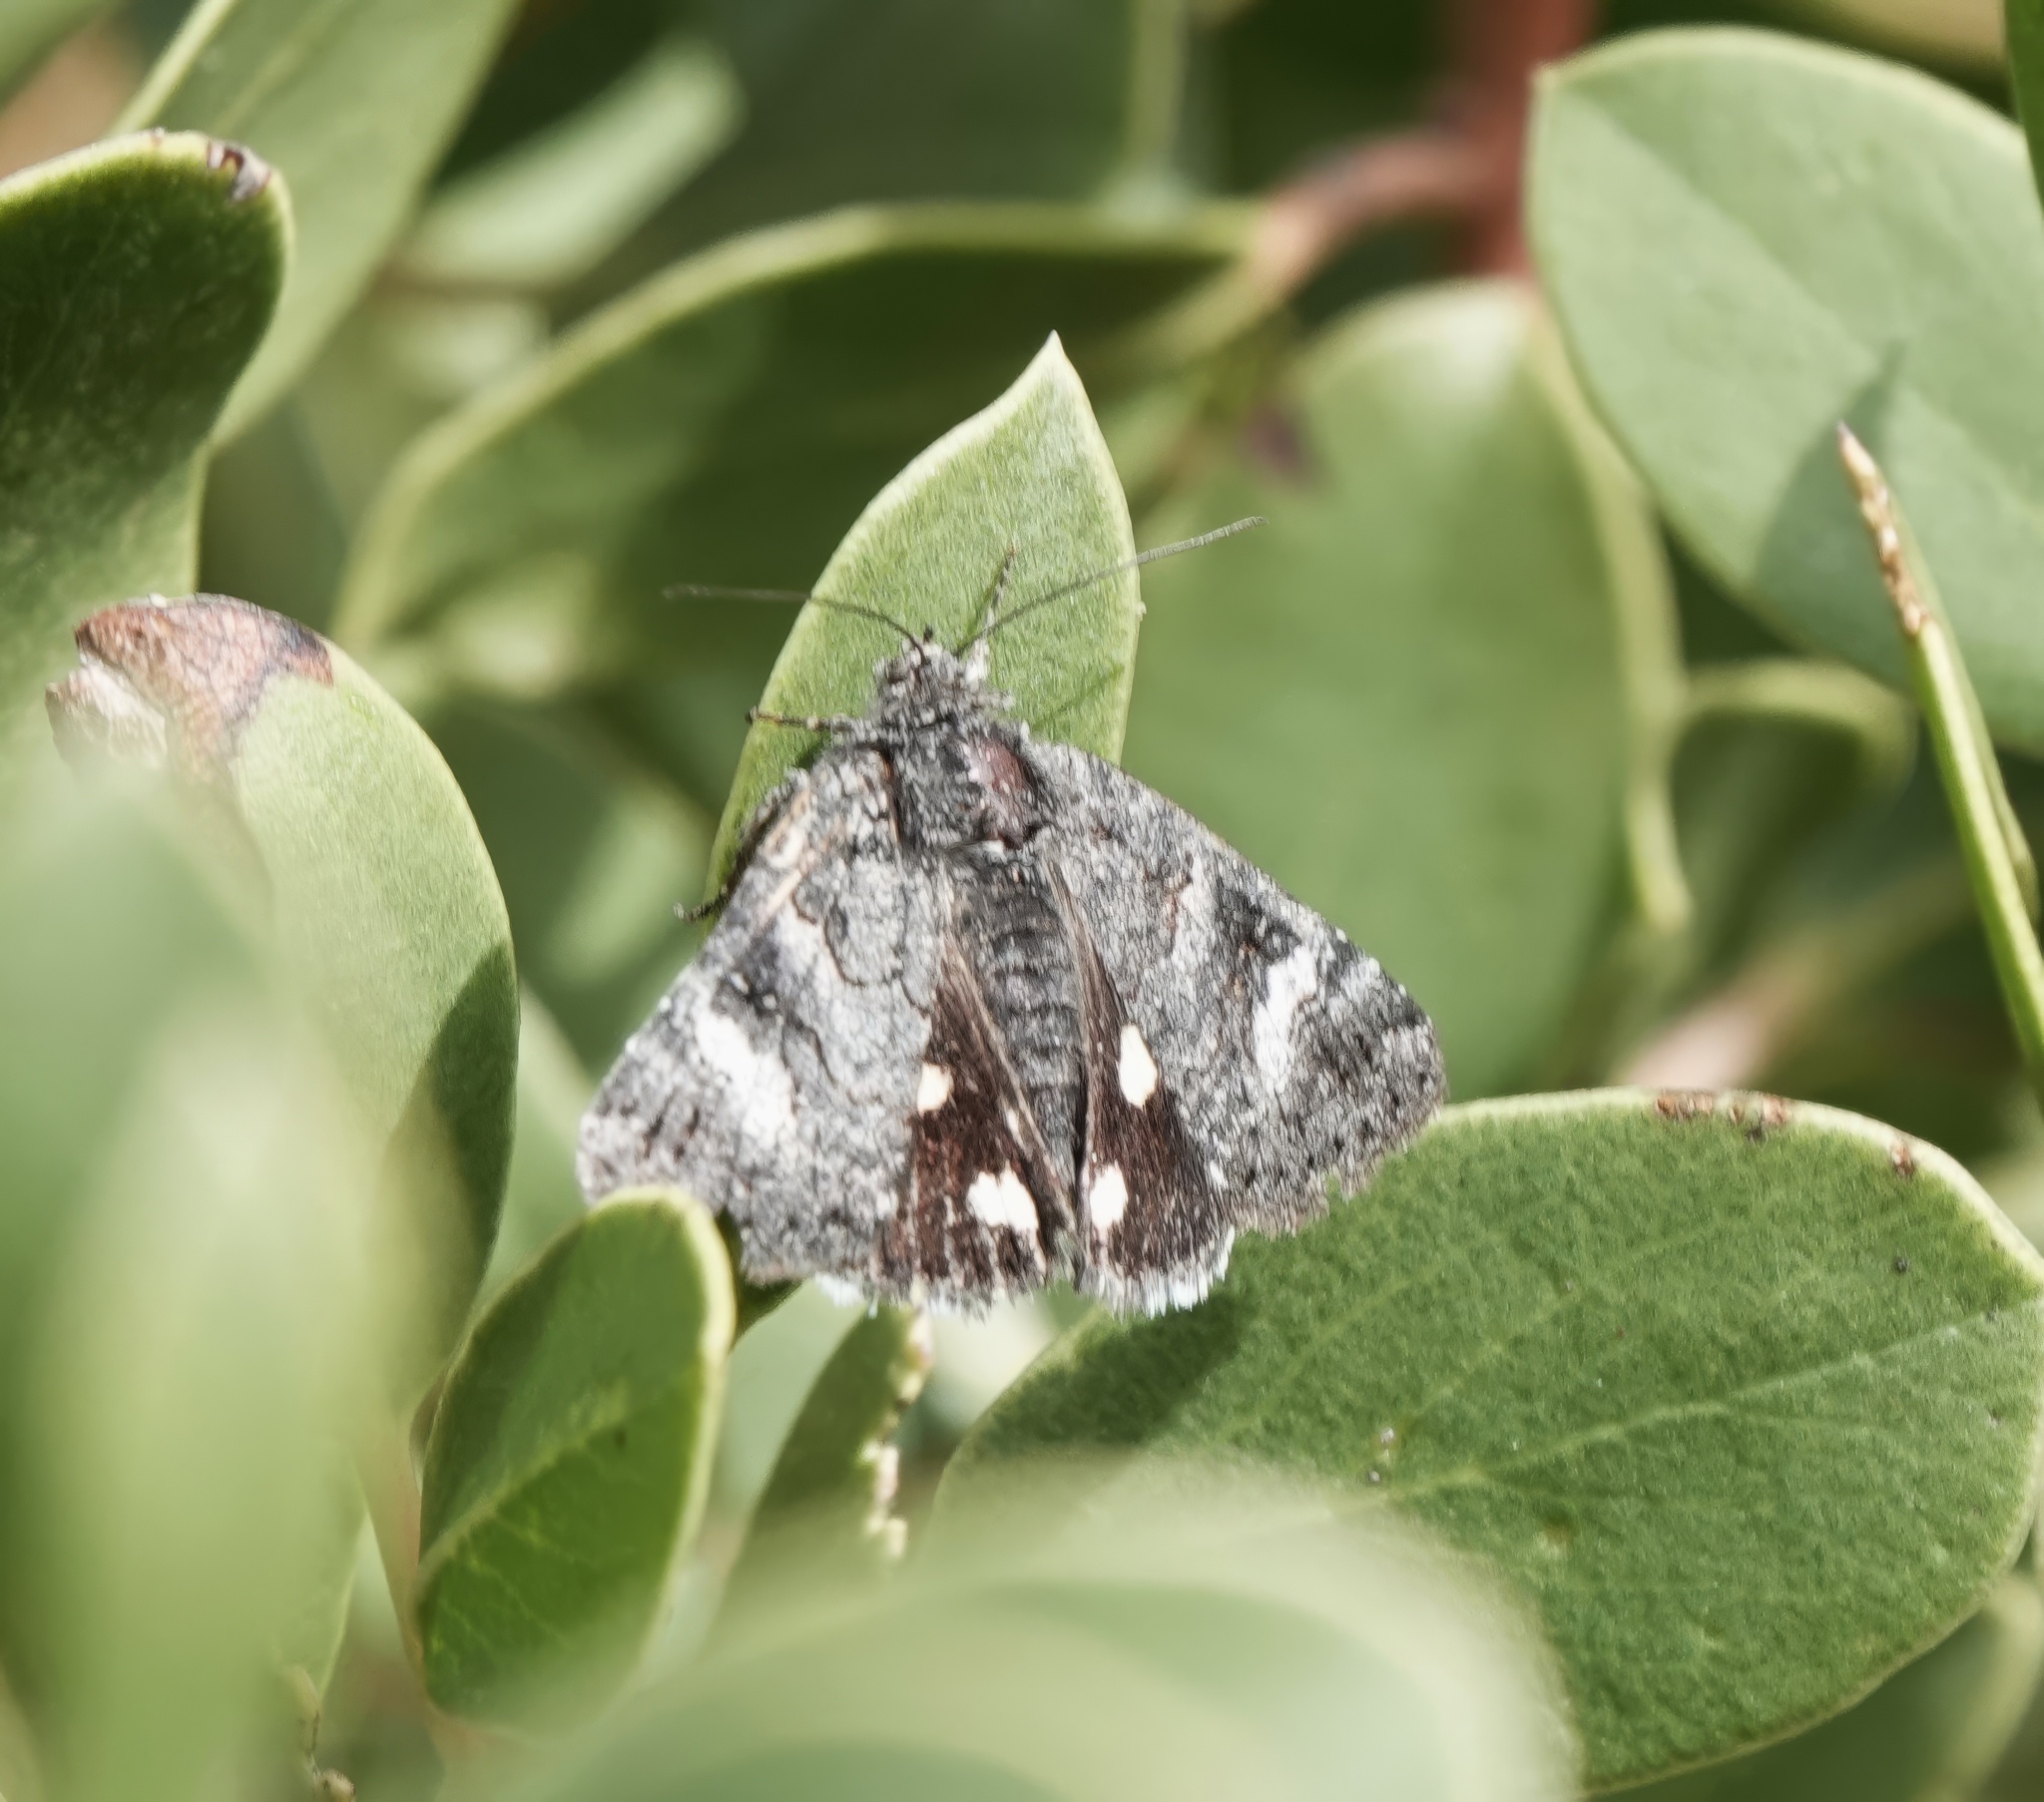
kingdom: Animalia
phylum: Arthropoda
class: Insecta
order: Lepidoptera
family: Erebidae
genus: Litocala
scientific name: Litocala sexsignata
